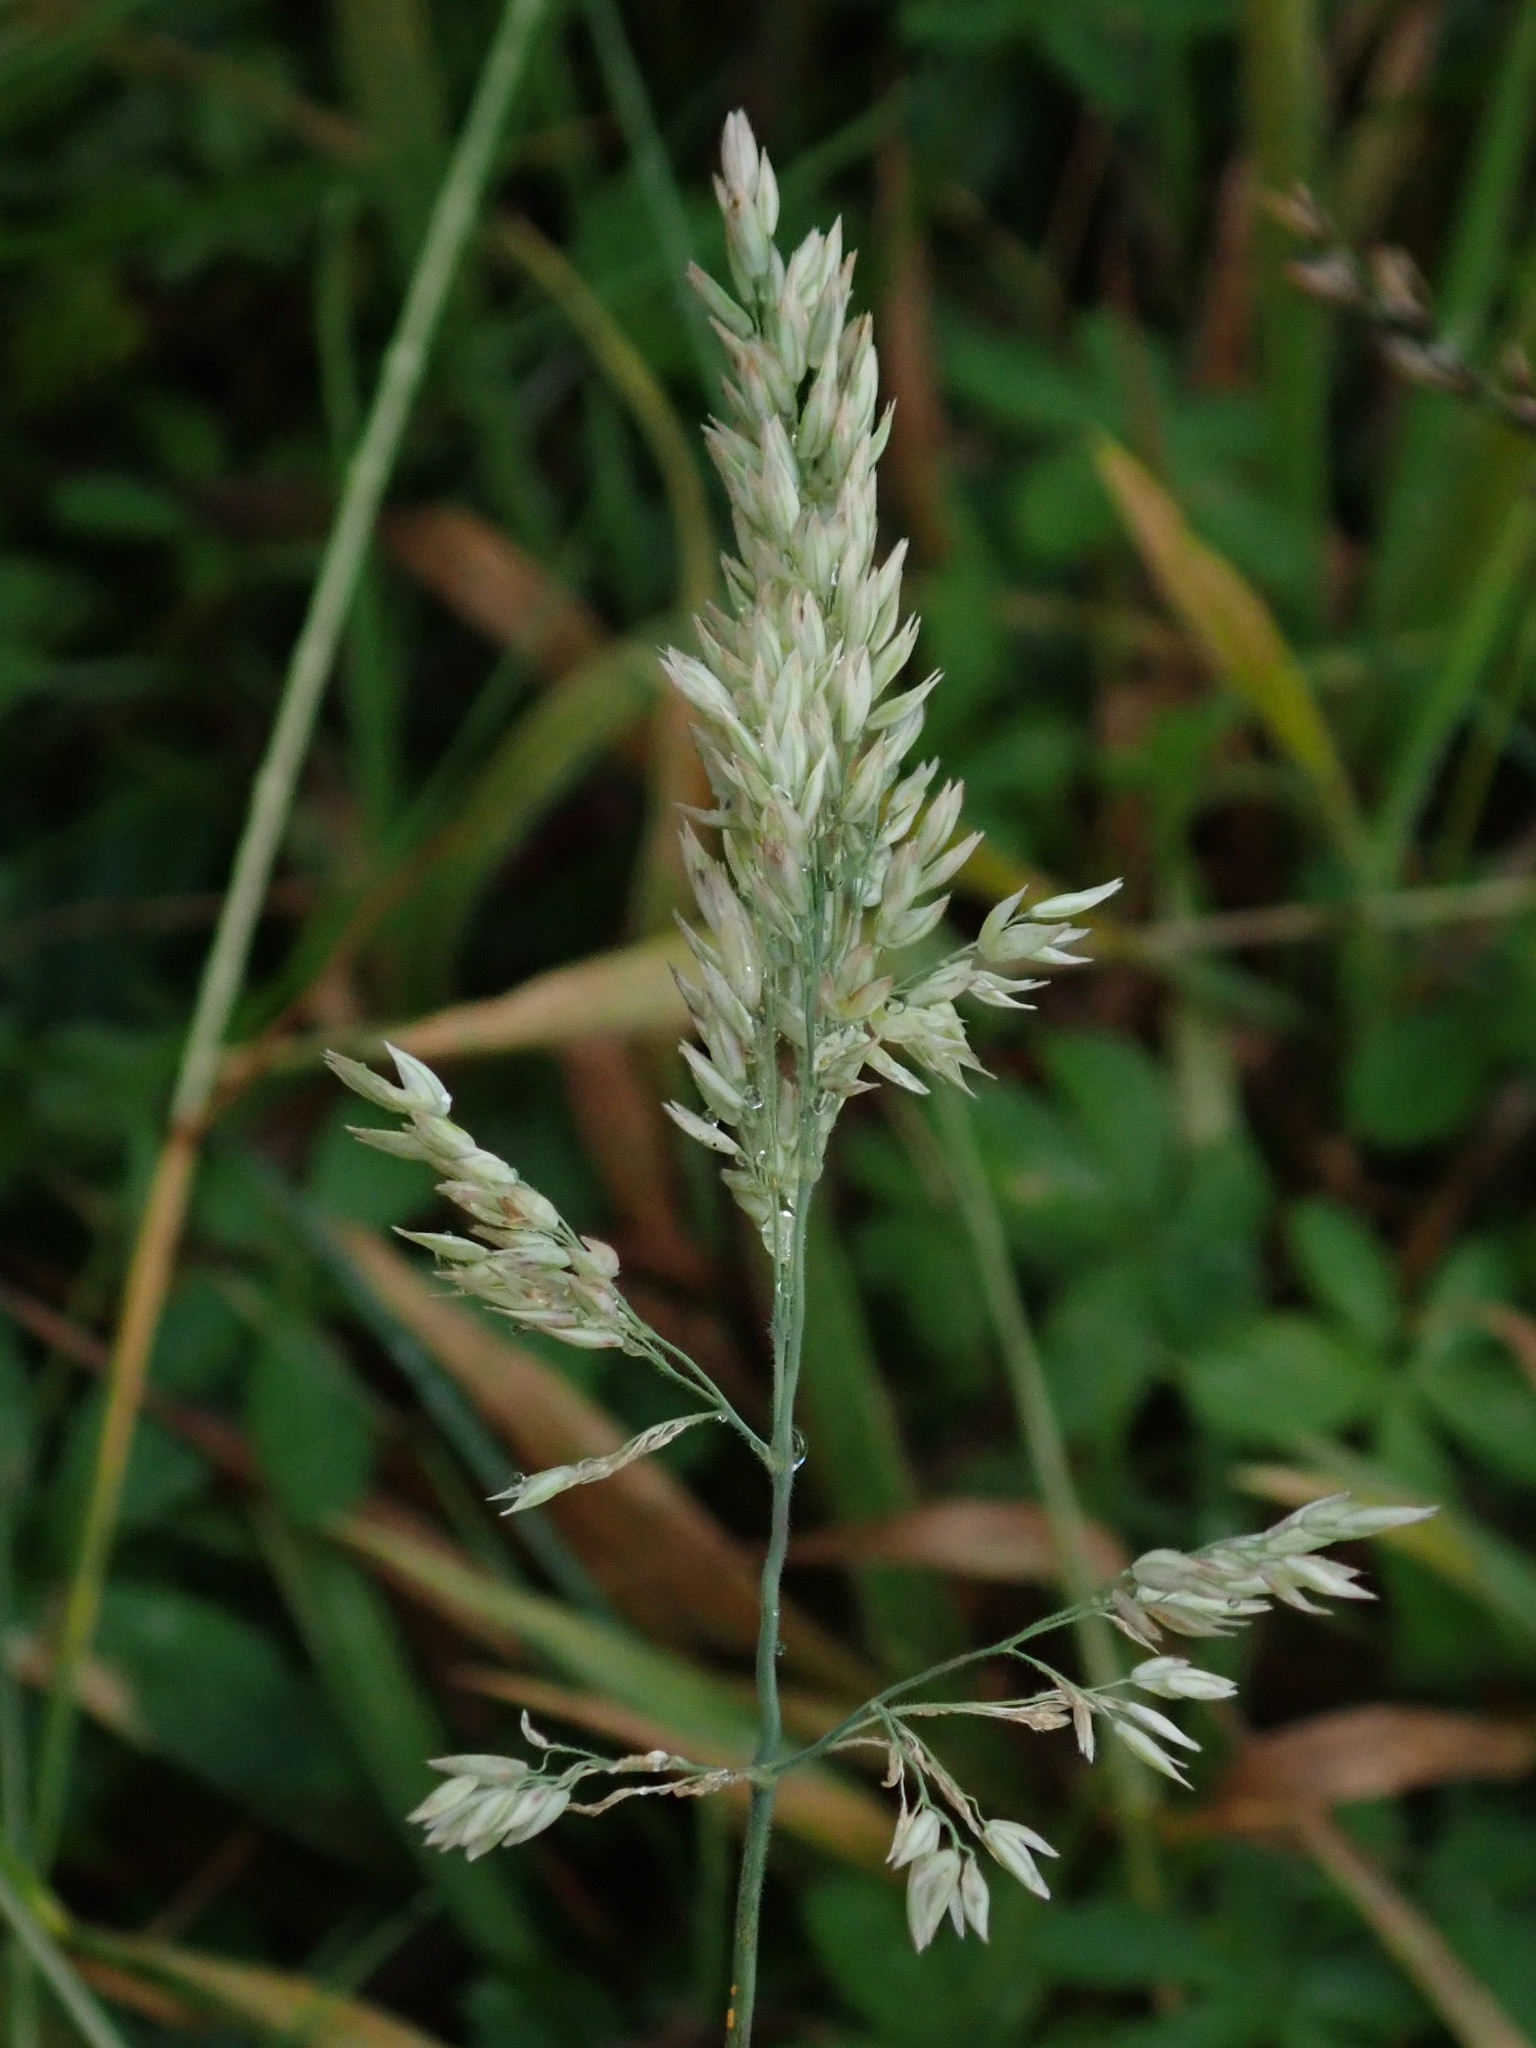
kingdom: Plantae
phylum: Tracheophyta
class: Liliopsida
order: Poales
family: Poaceae
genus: Holcus
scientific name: Holcus lanatus
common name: Yorkshire-fog
